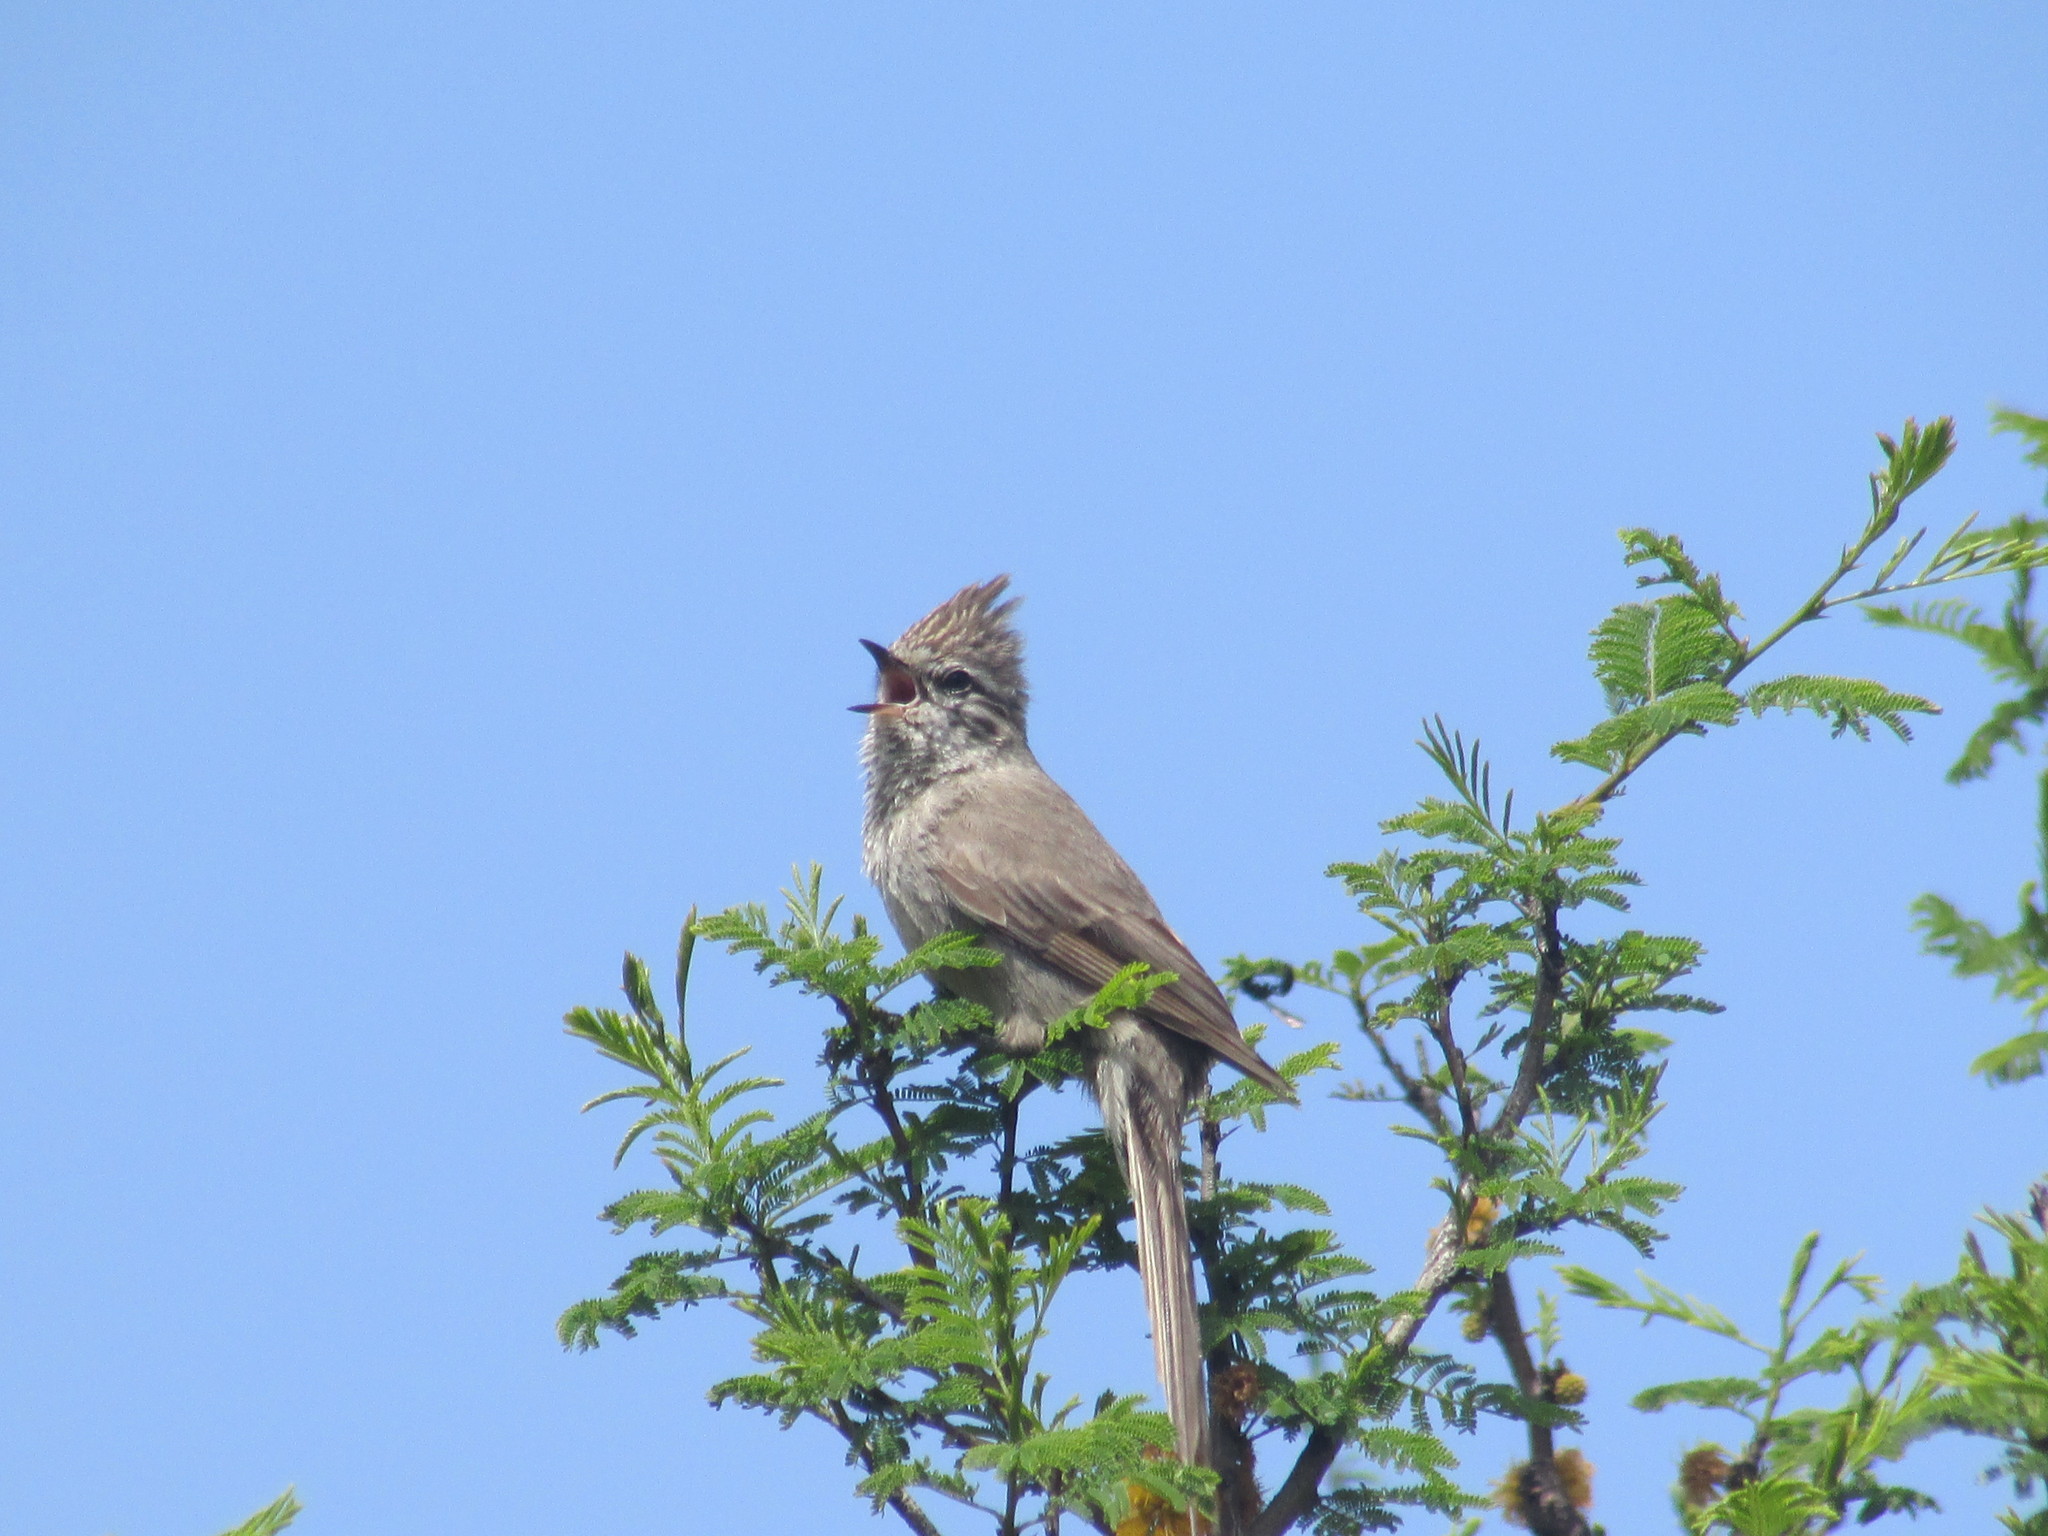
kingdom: Animalia
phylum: Chordata
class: Aves
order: Passeriformes
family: Furnariidae
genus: Leptasthenura
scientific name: Leptasthenura platensis
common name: Tufted tit-spinetail
